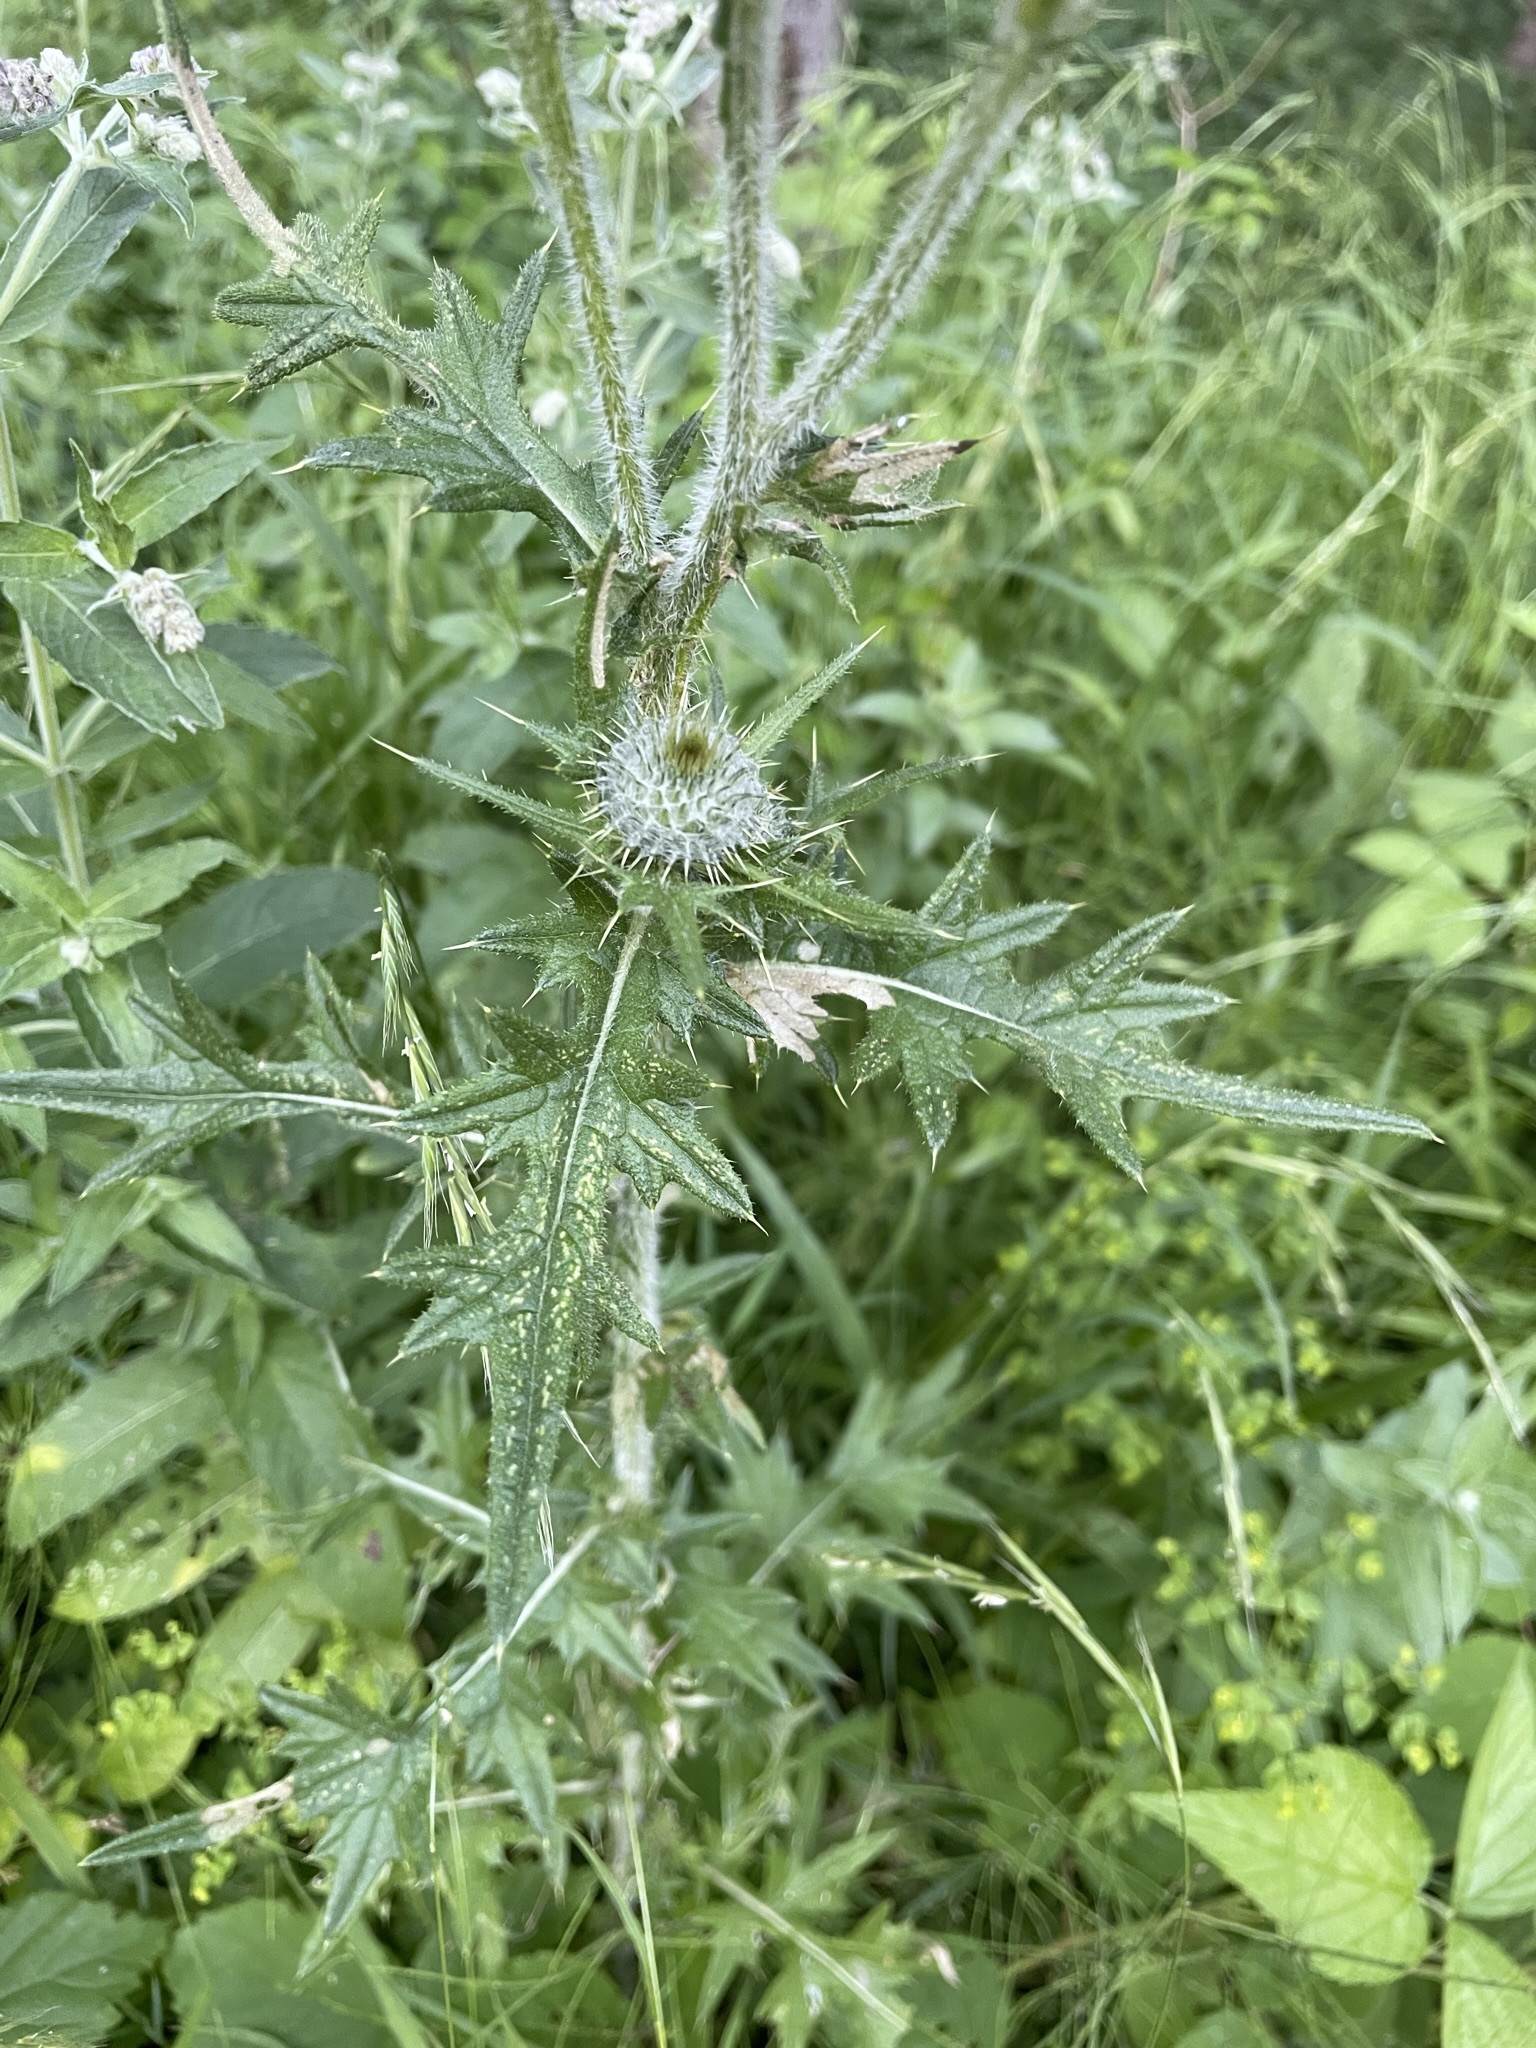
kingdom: Plantae
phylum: Tracheophyta
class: Magnoliopsida
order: Asterales
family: Asteraceae
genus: Cirsium
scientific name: Cirsium vulgare
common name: Bull thistle
